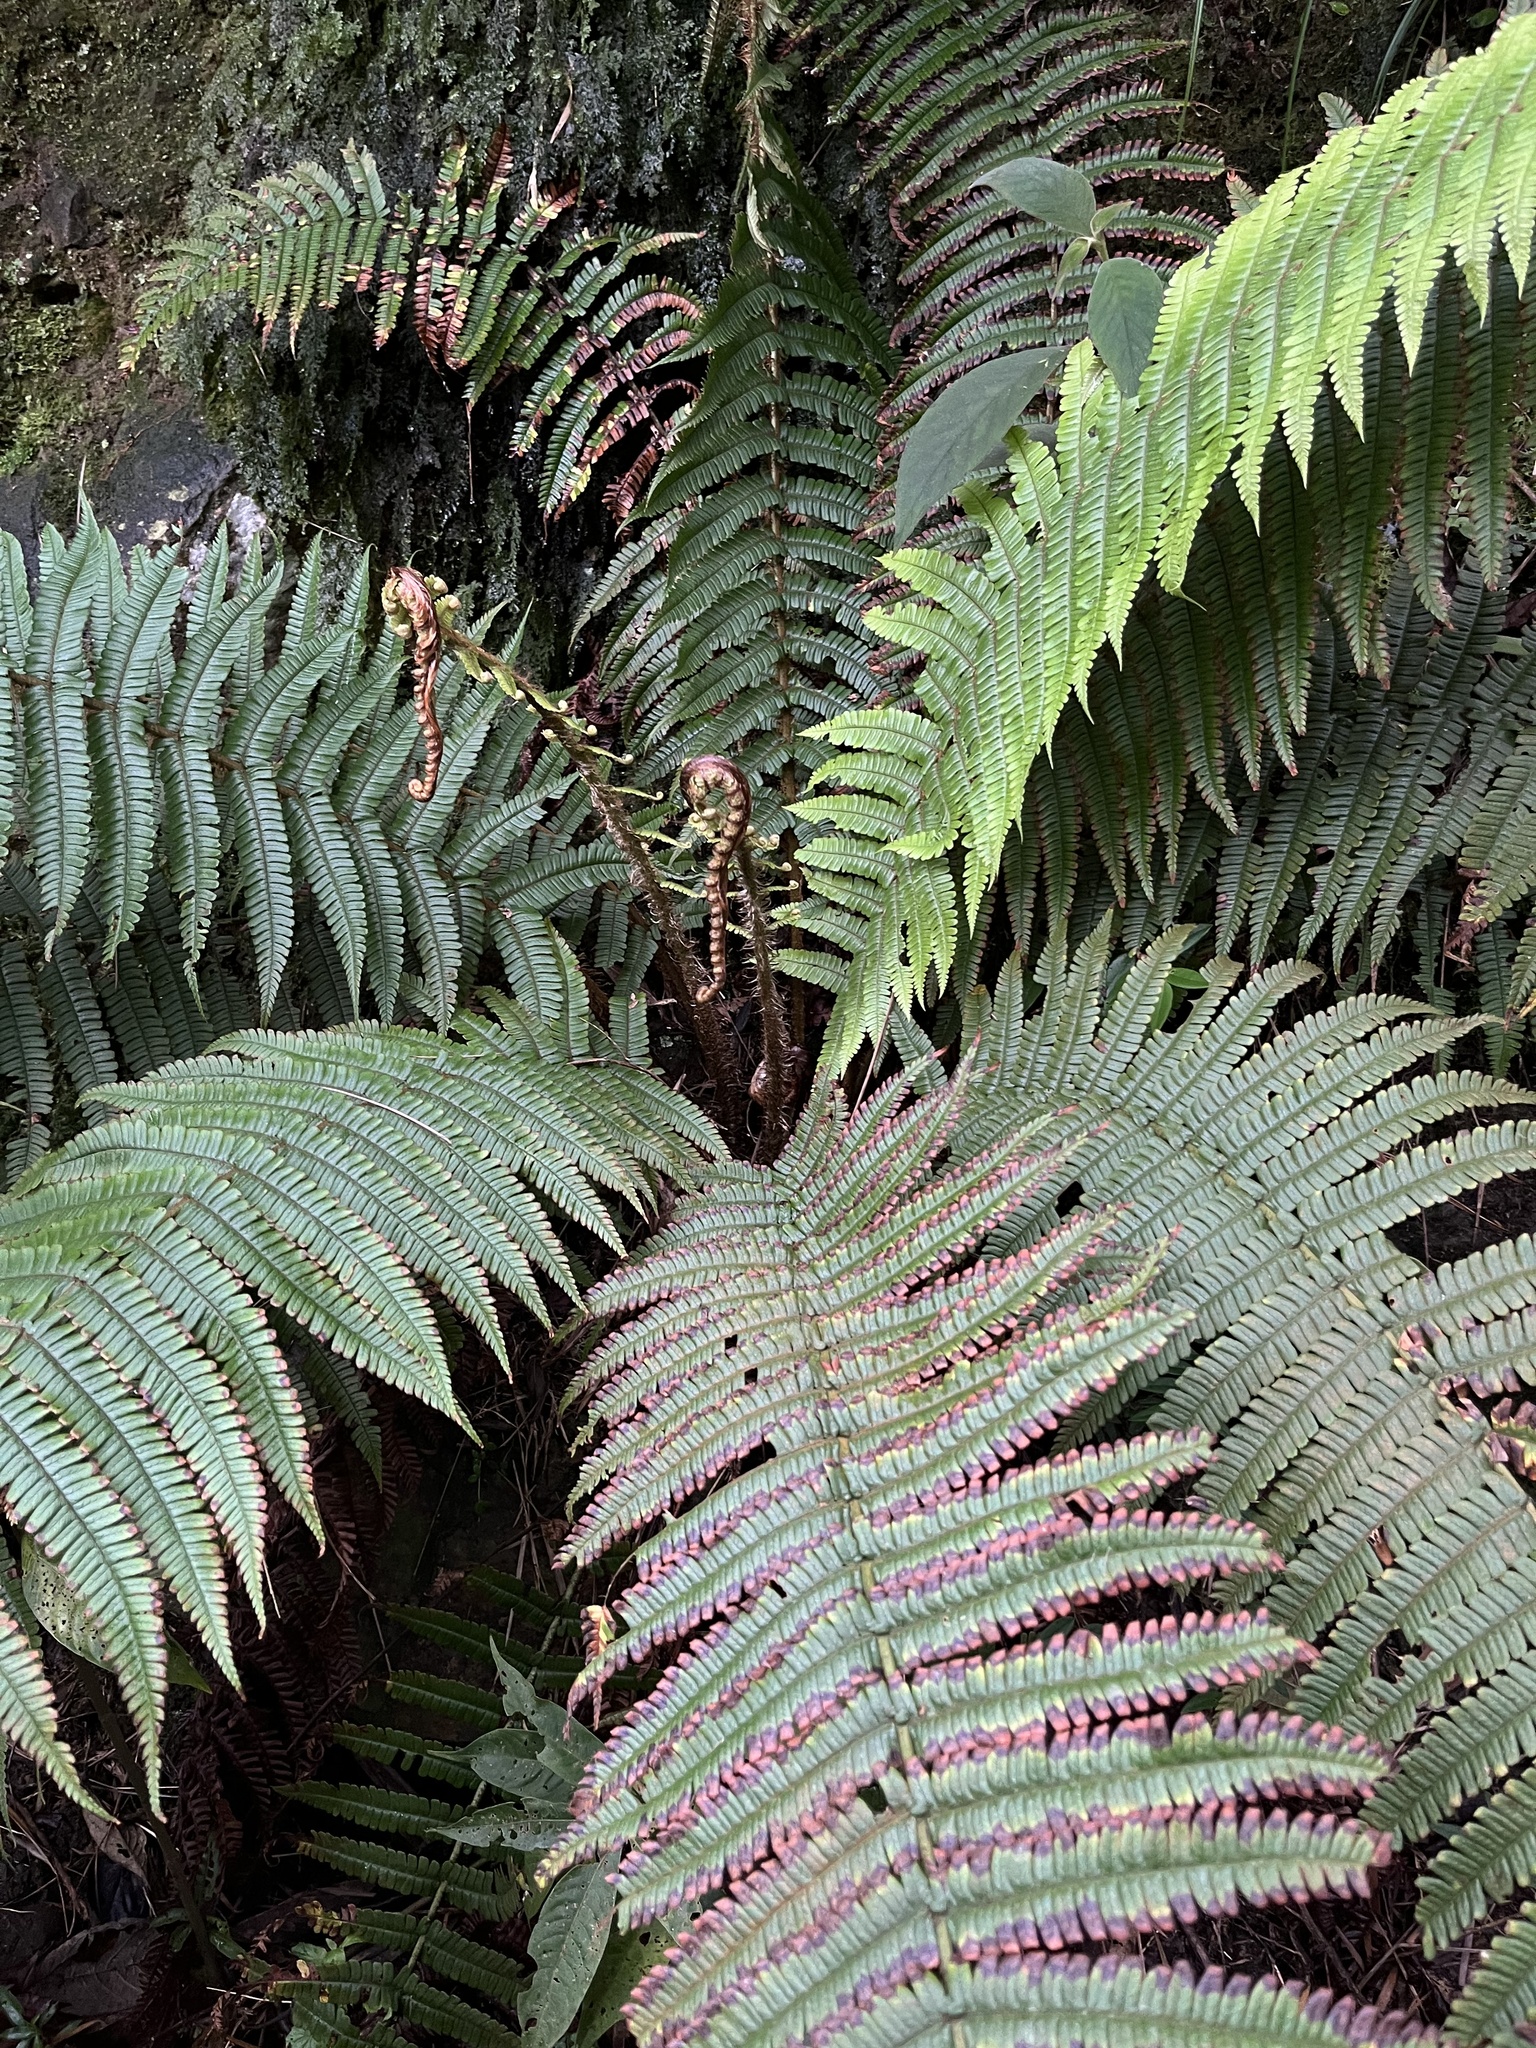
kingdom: Plantae
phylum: Tracheophyta
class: Polypodiopsida
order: Polypodiales
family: Dryopteridaceae
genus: Dryopteris
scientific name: Dryopteris wallichiana
